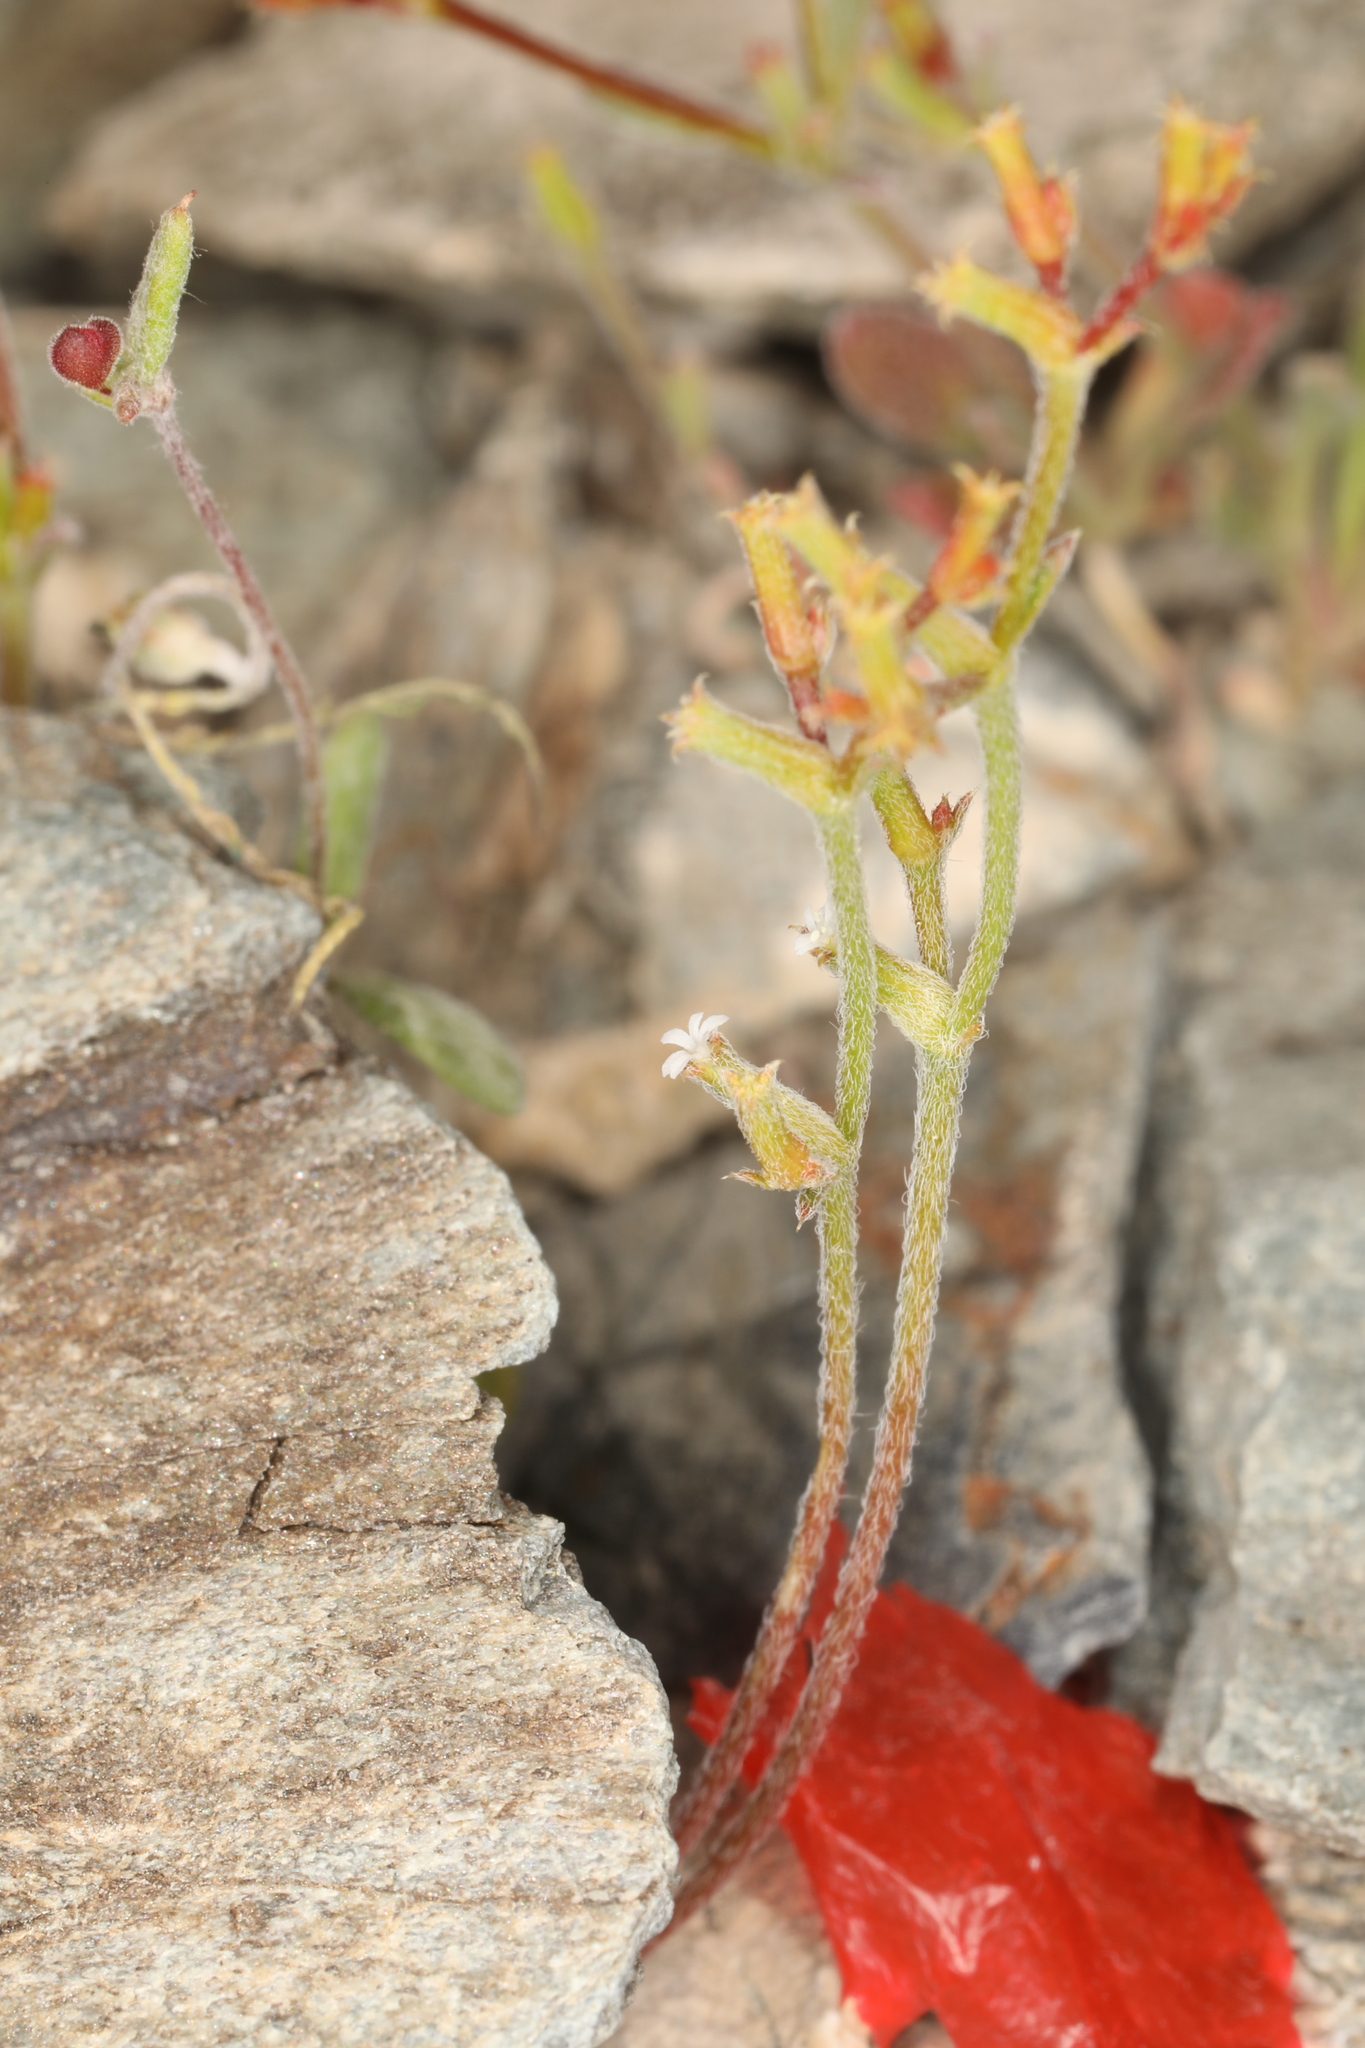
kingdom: Plantae
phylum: Tracheophyta
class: Magnoliopsida
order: Caryophyllales
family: Polygonaceae
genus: Chorizanthe
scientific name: Chorizanthe brevicornu
